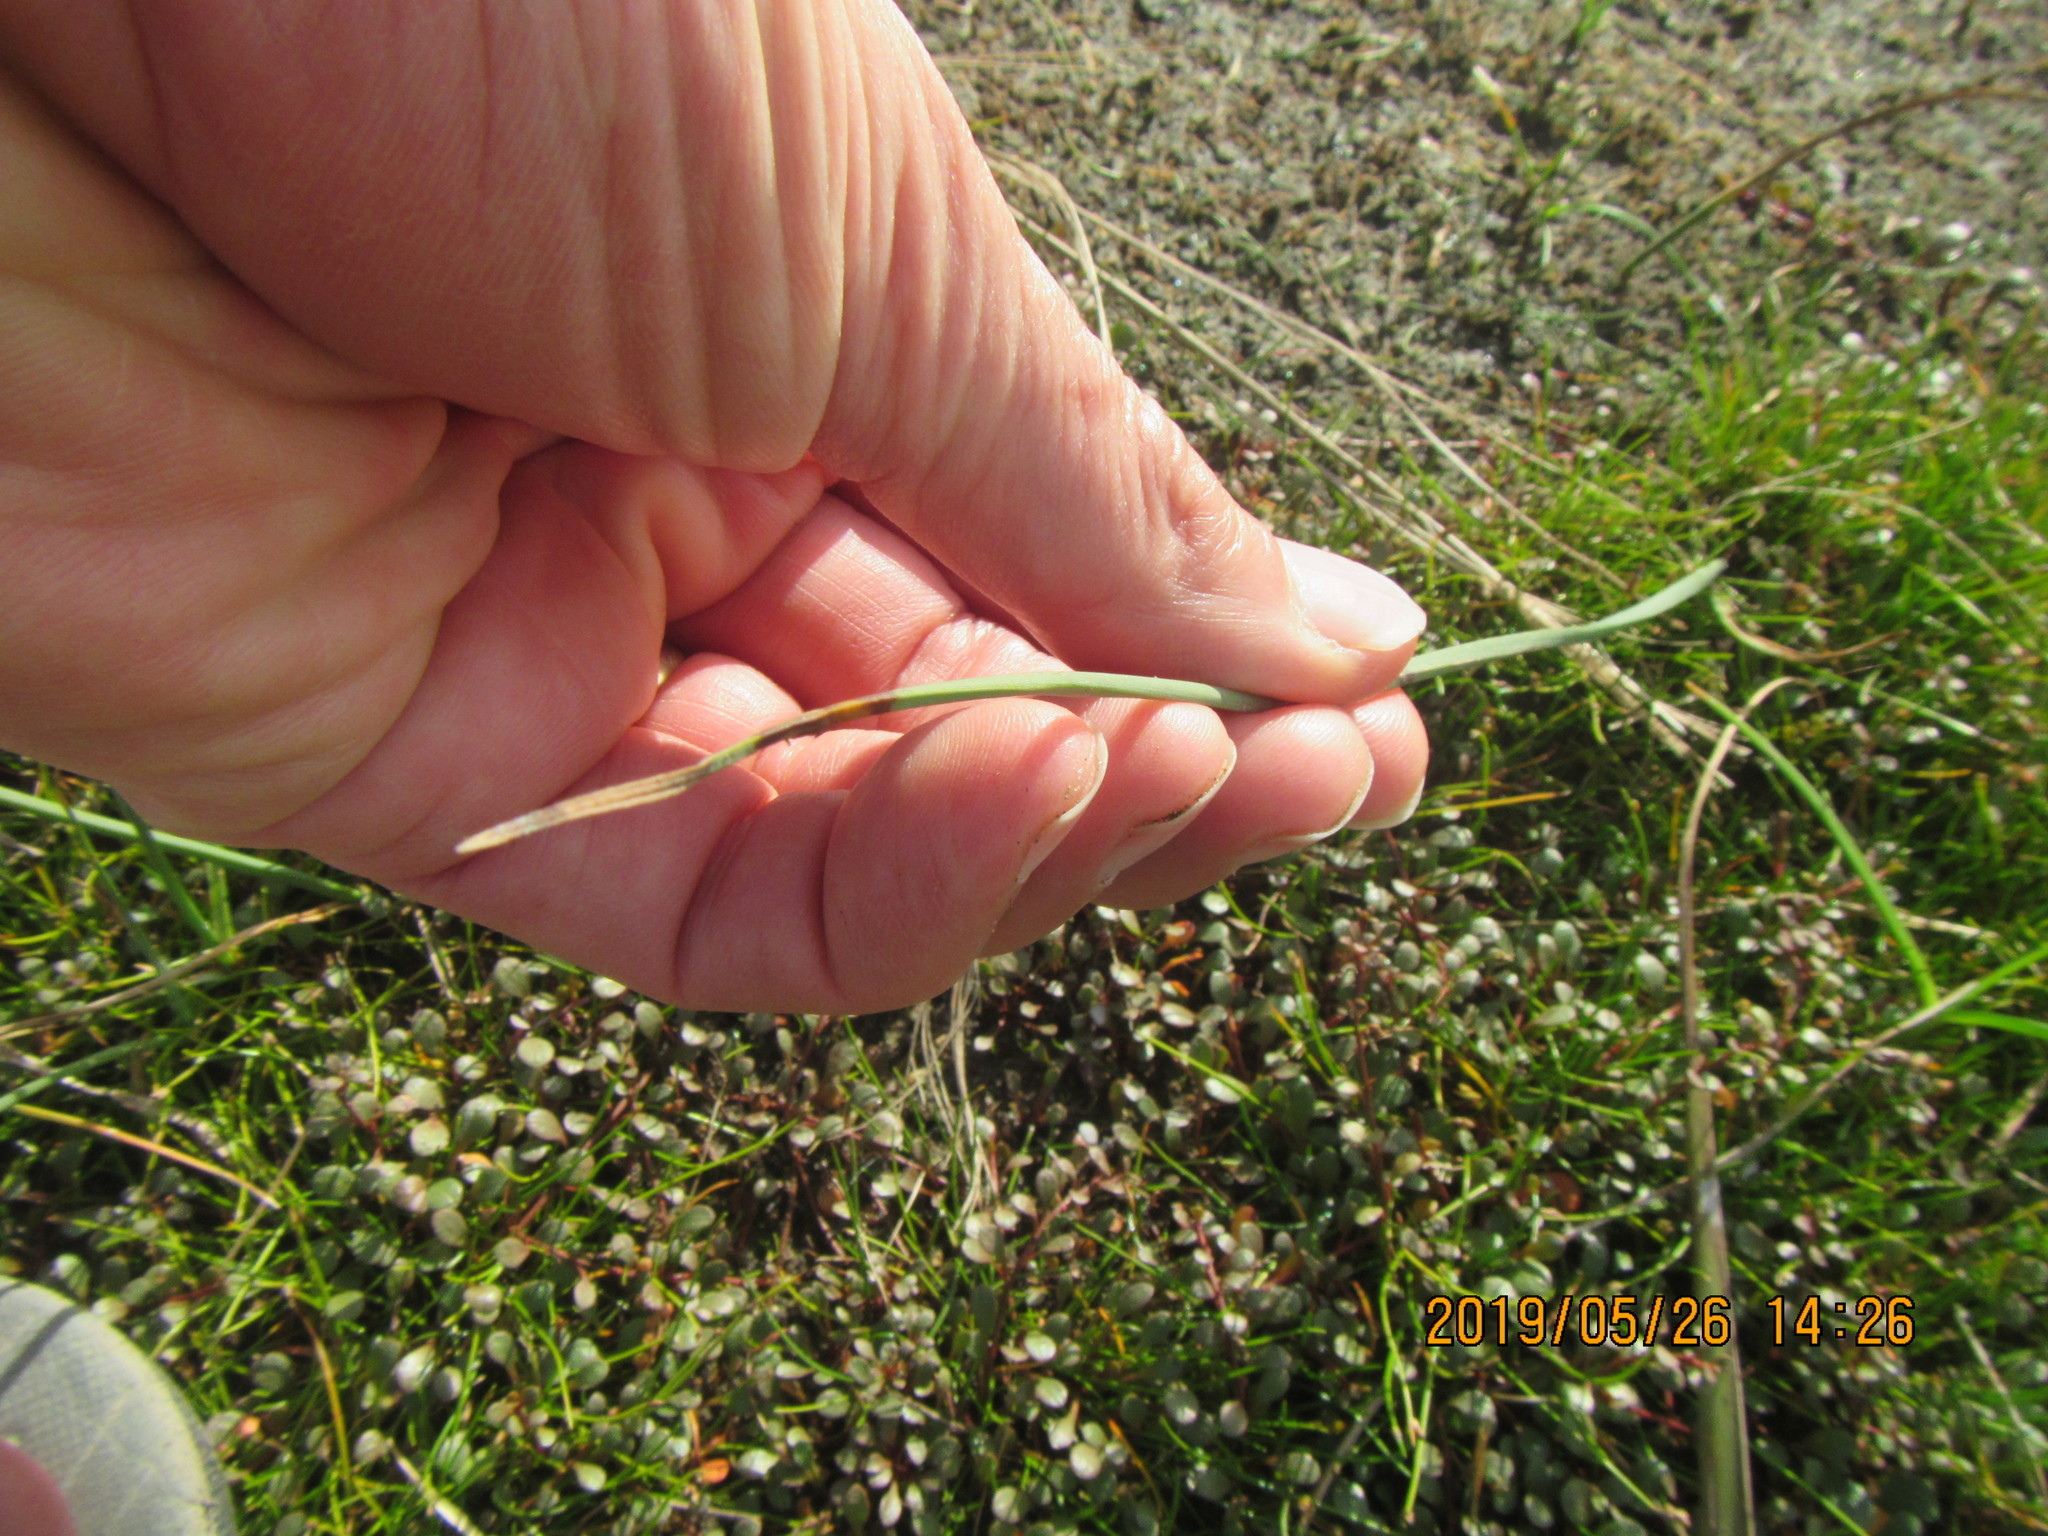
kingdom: Plantae
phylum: Tracheophyta
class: Liliopsida
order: Poales
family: Cyperaceae
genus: Schoenoplectus
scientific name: Schoenoplectus pungens
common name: Sharp club-rush
